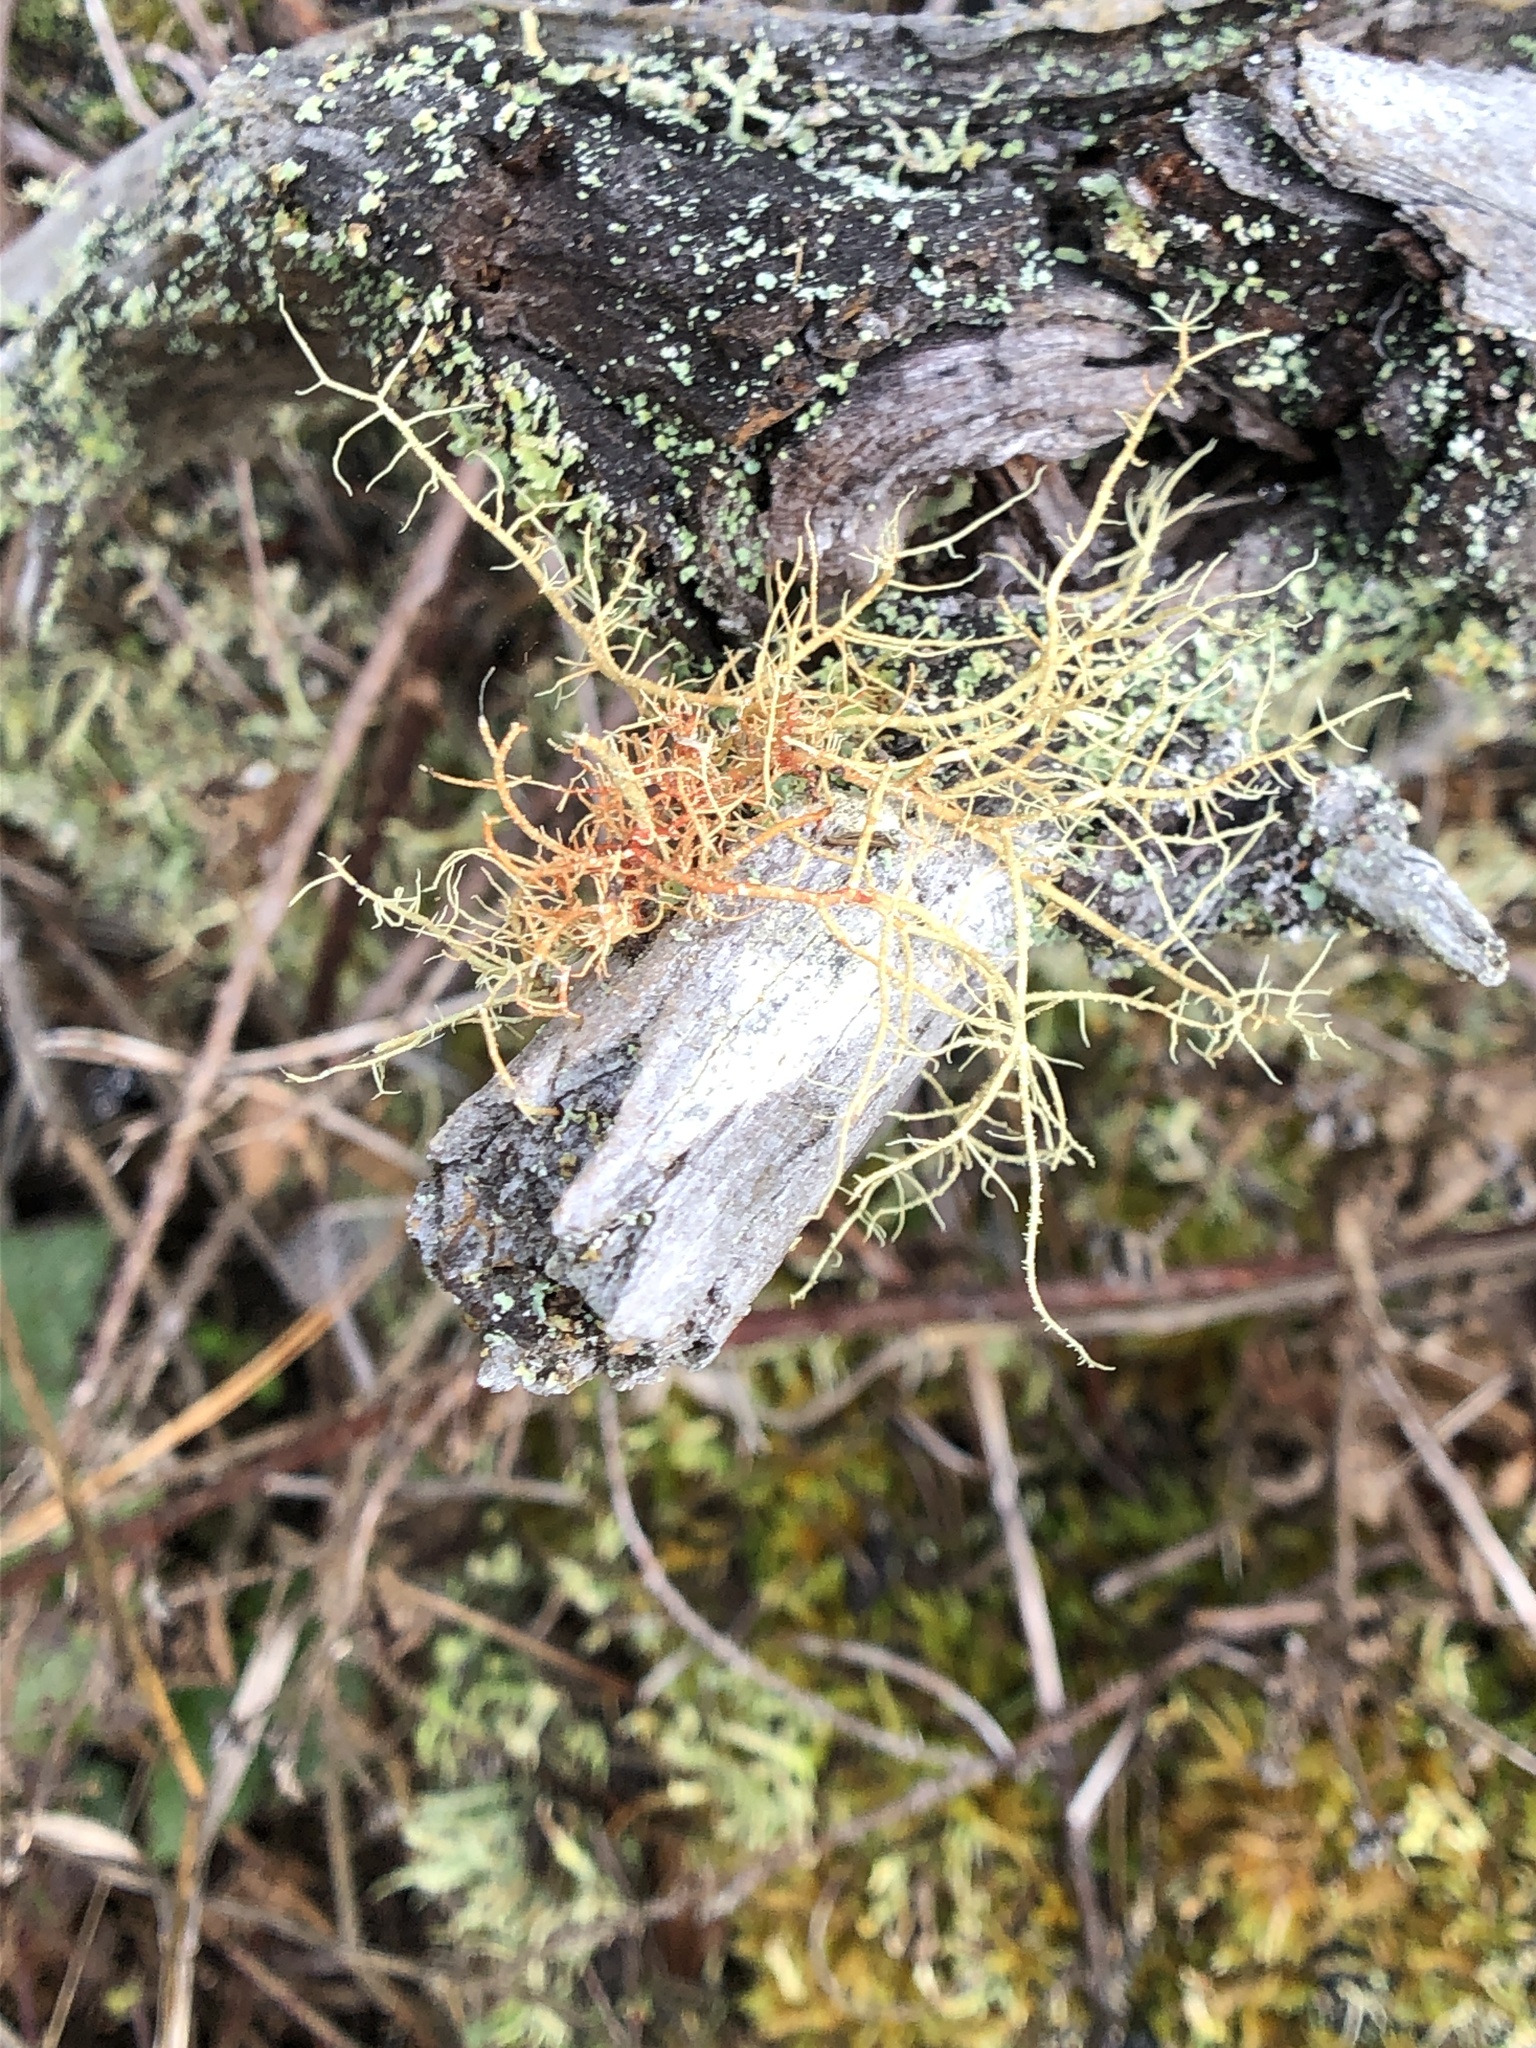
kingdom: Fungi
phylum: Ascomycota
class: Lecanoromycetes
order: Lecanorales
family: Parmeliaceae
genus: Usnea
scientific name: Usnea rubicunda
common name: Red beard lichen
